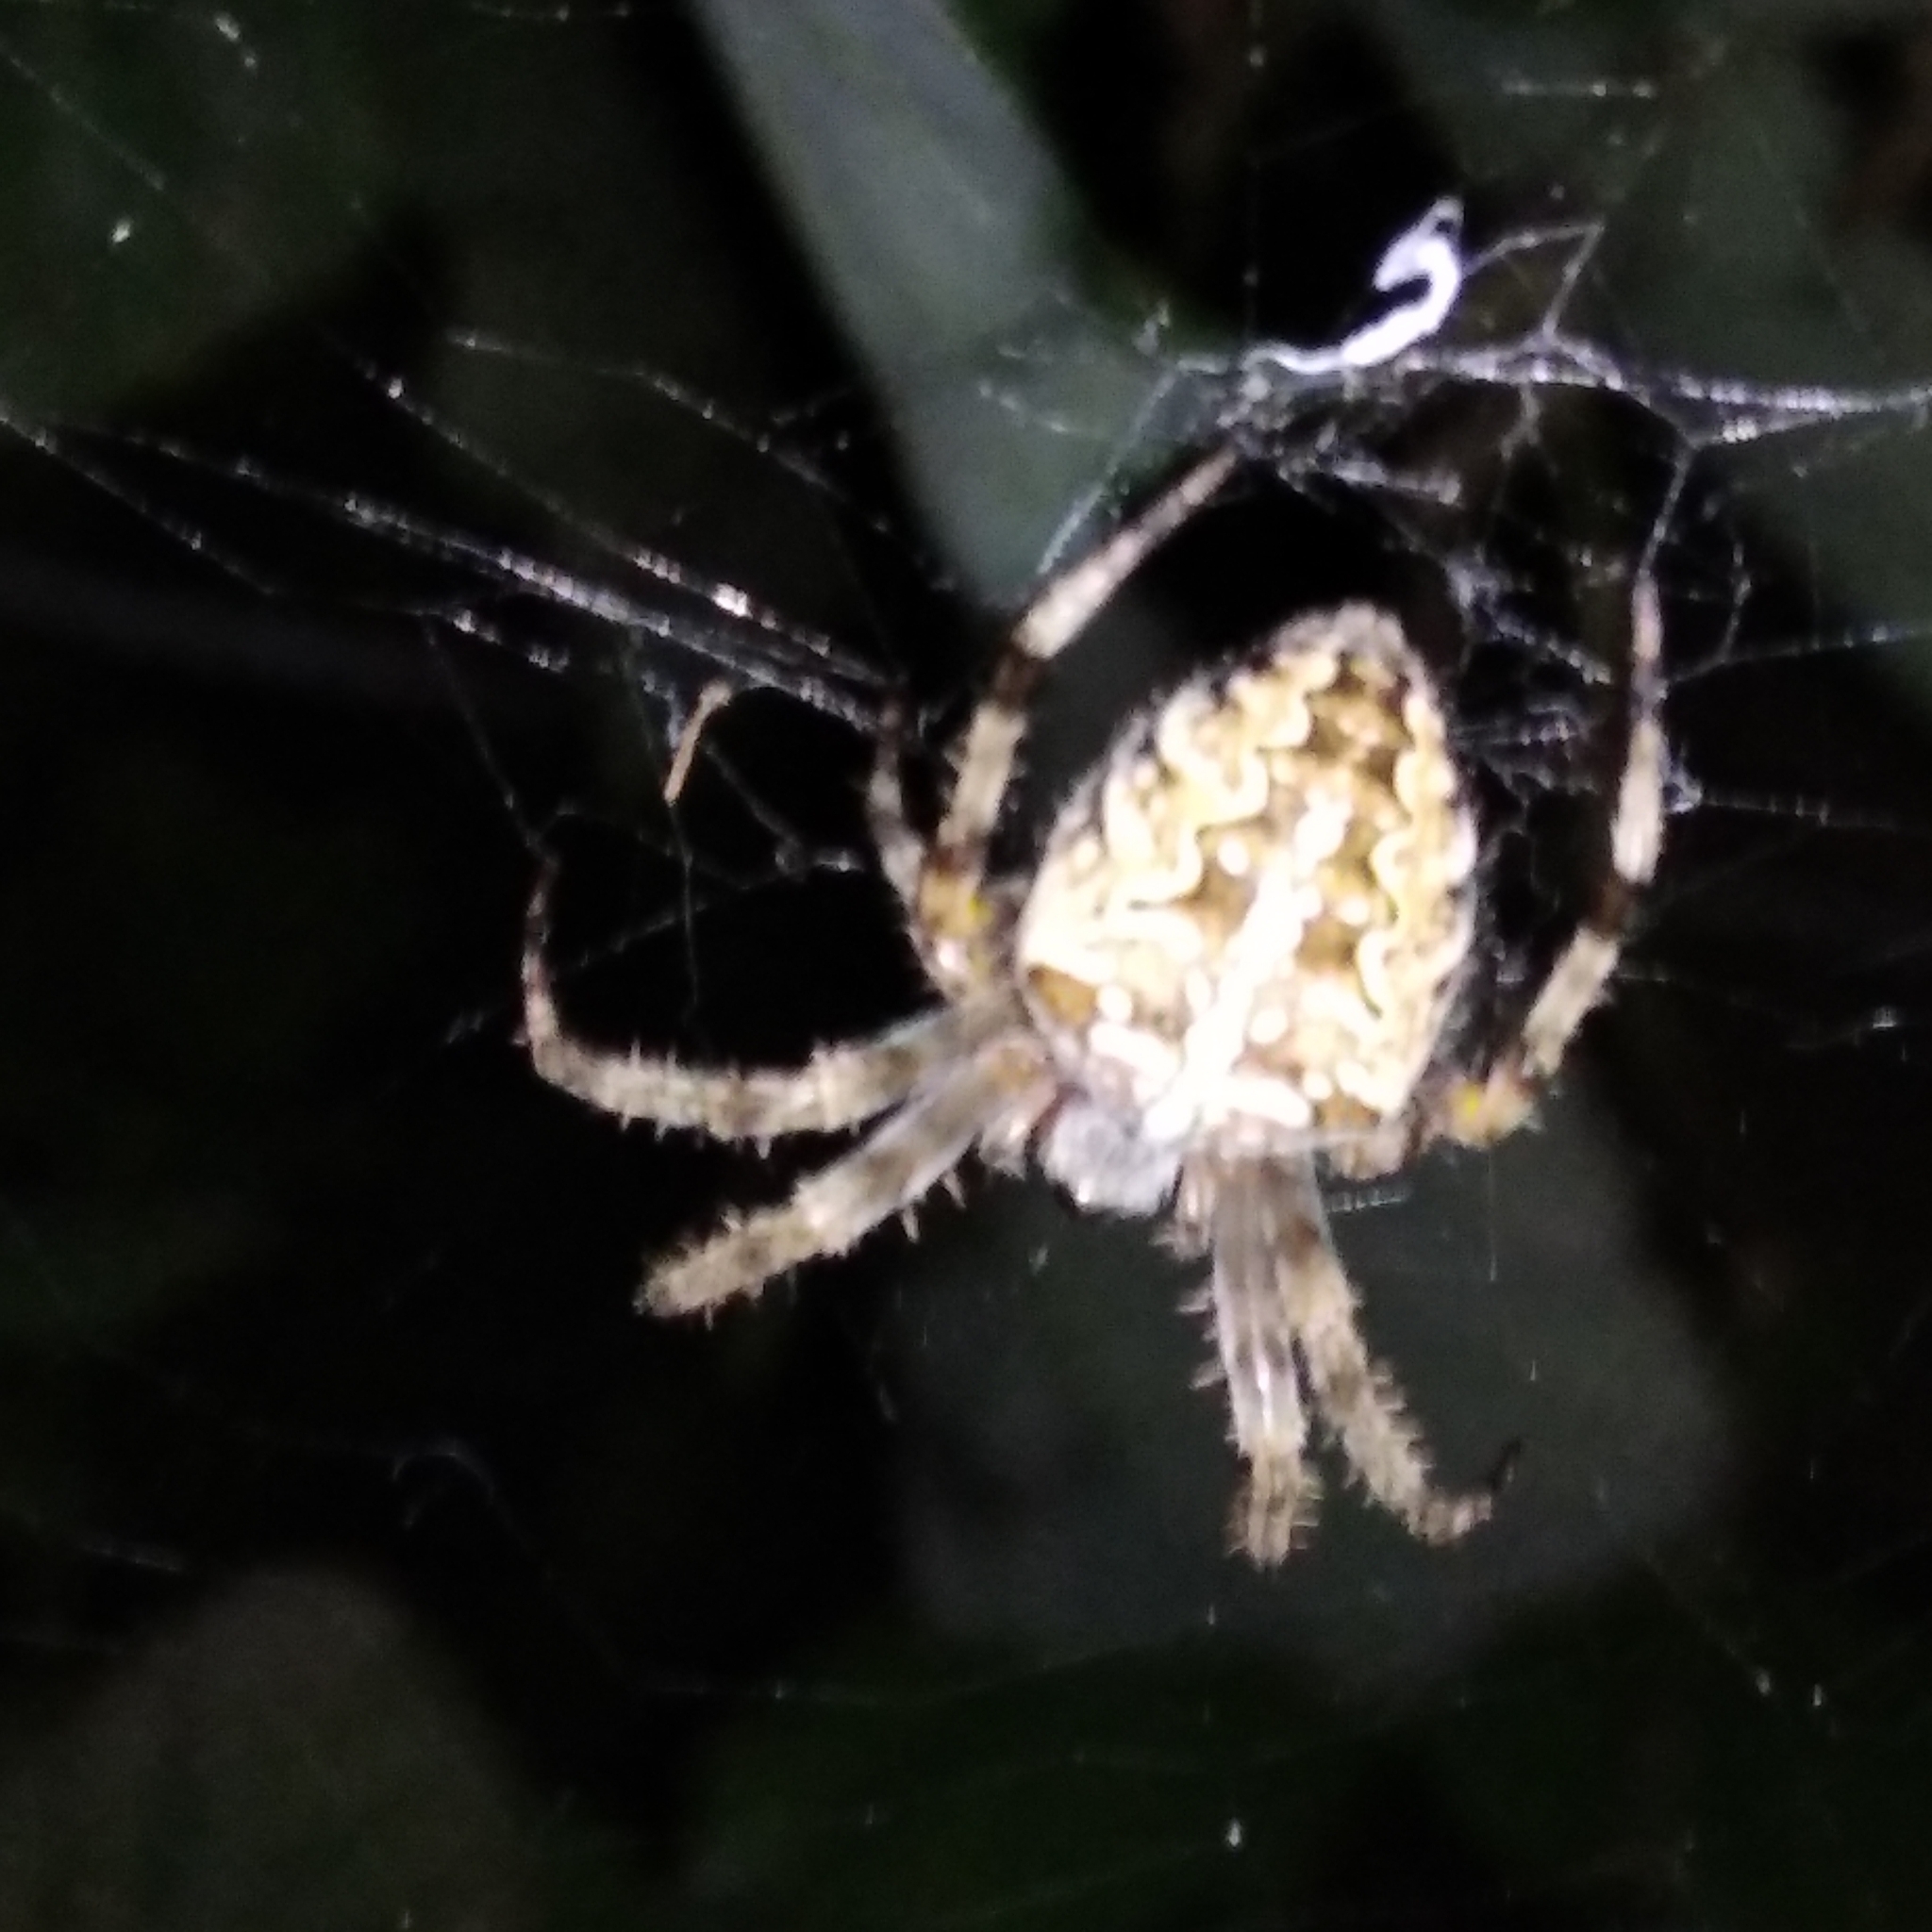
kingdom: Animalia
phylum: Arthropoda
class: Arachnida
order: Araneae
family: Araneidae
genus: Araneus
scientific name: Araneus diadematus
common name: Cross orbweaver
